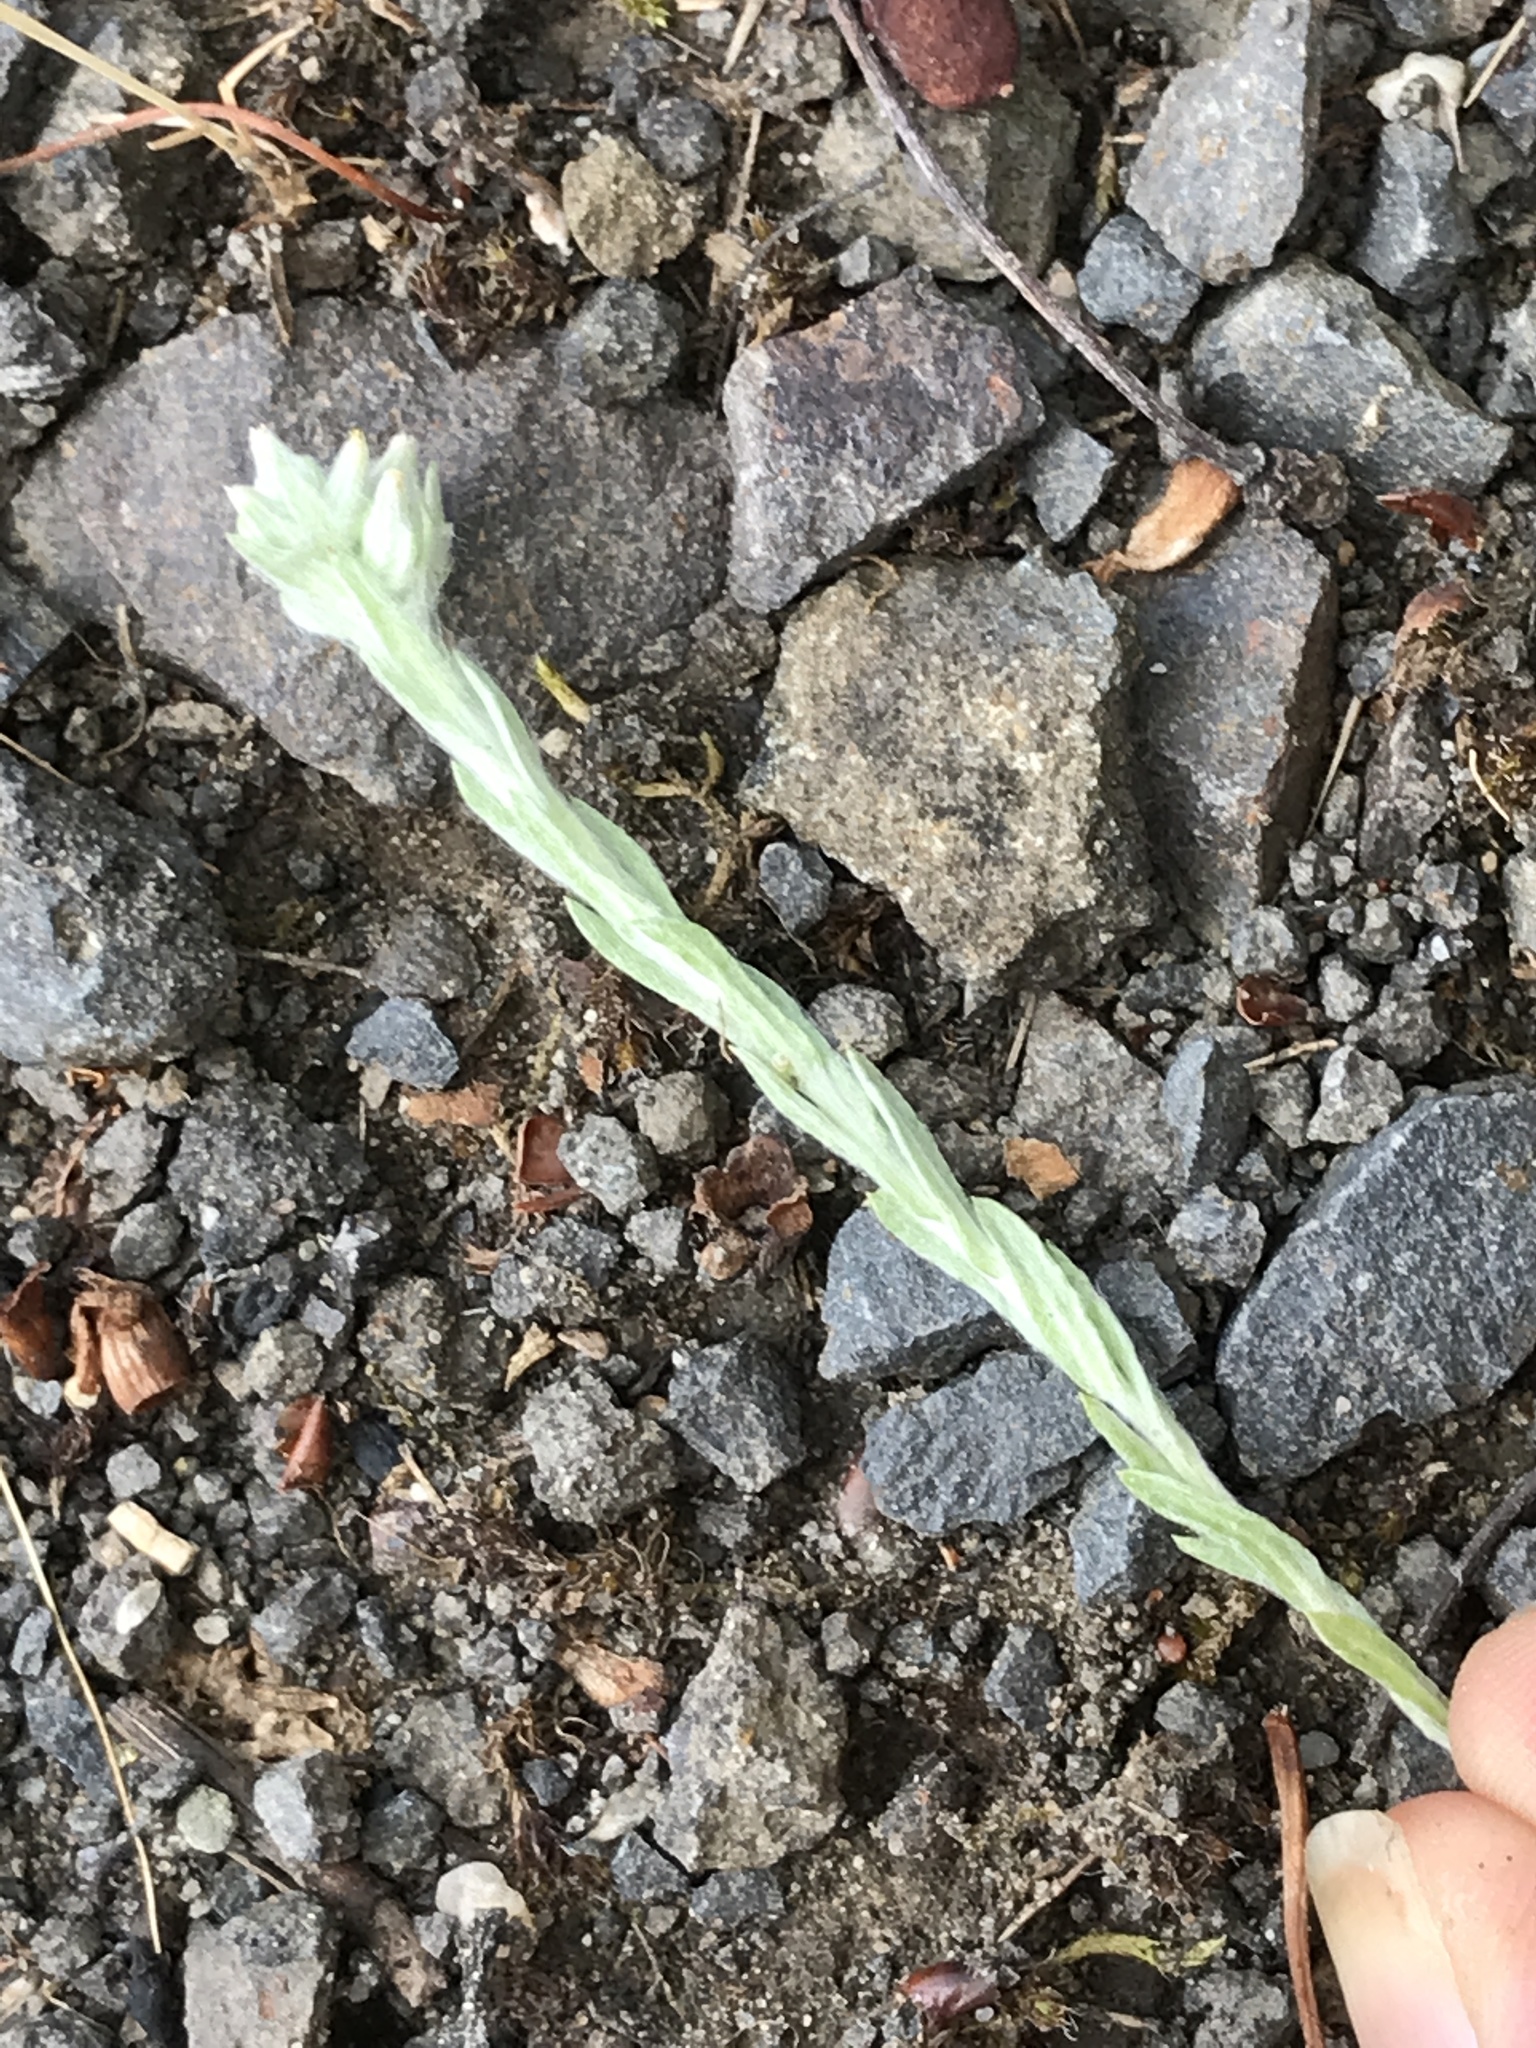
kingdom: Plantae
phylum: Tracheophyta
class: Magnoliopsida
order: Asterales
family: Asteraceae
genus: Filago
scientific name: Filago arvensis
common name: Field cudweed
